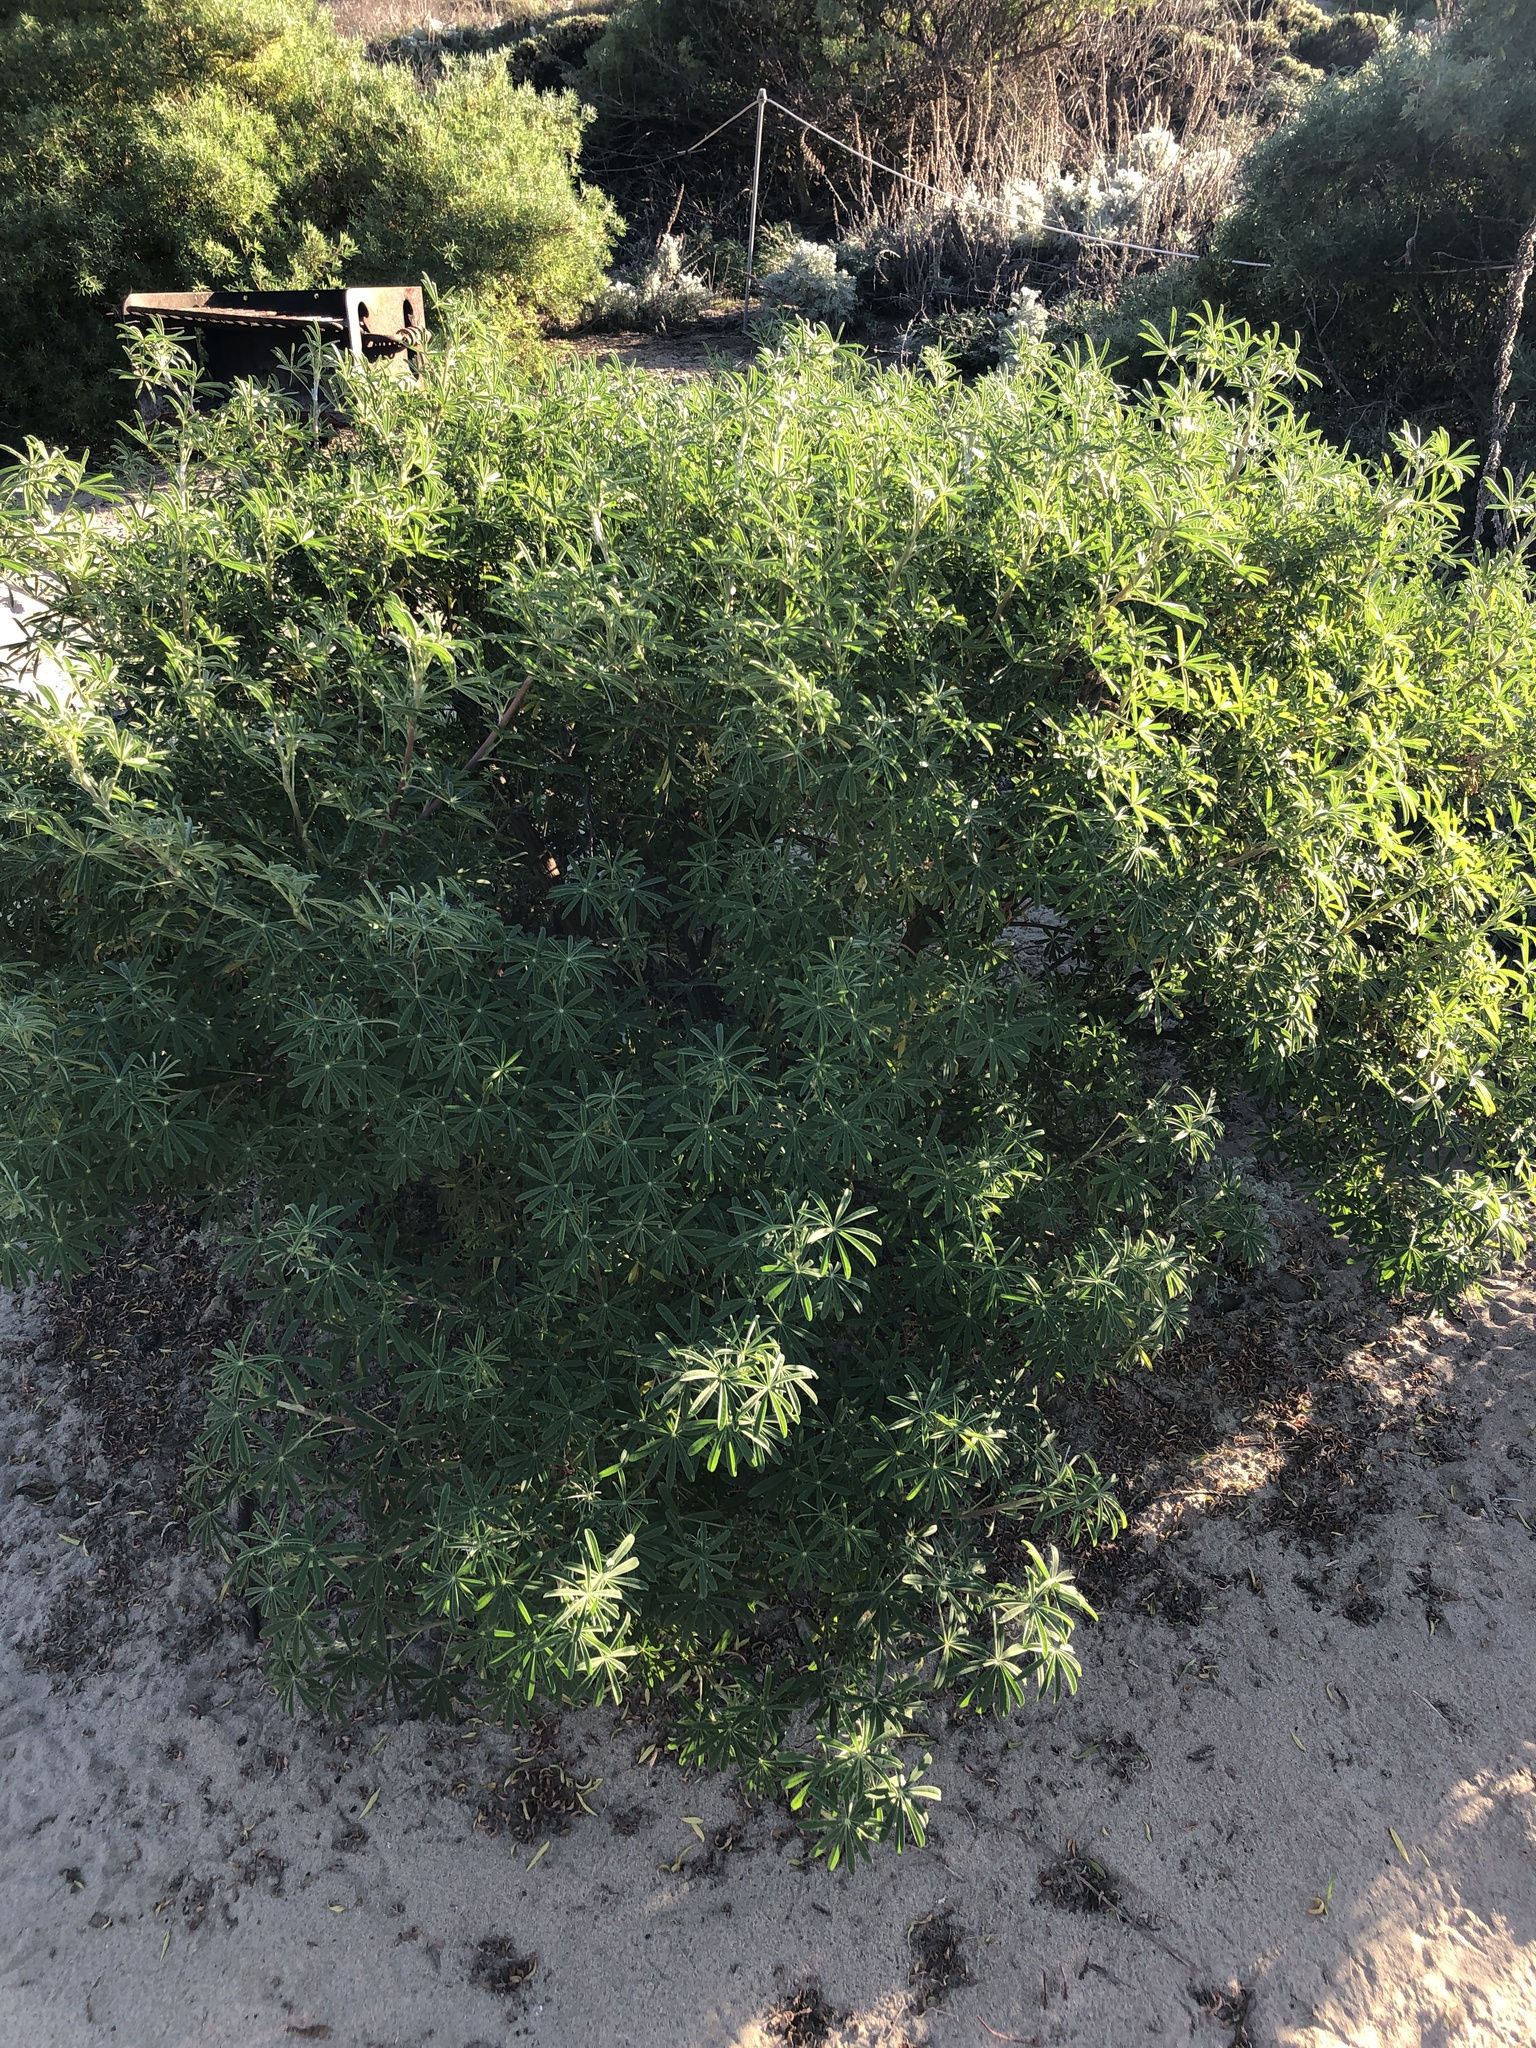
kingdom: Plantae
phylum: Tracheophyta
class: Magnoliopsida
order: Fabales
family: Fabaceae
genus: Lupinus
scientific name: Lupinus arboreus
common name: Yellow bush lupine
